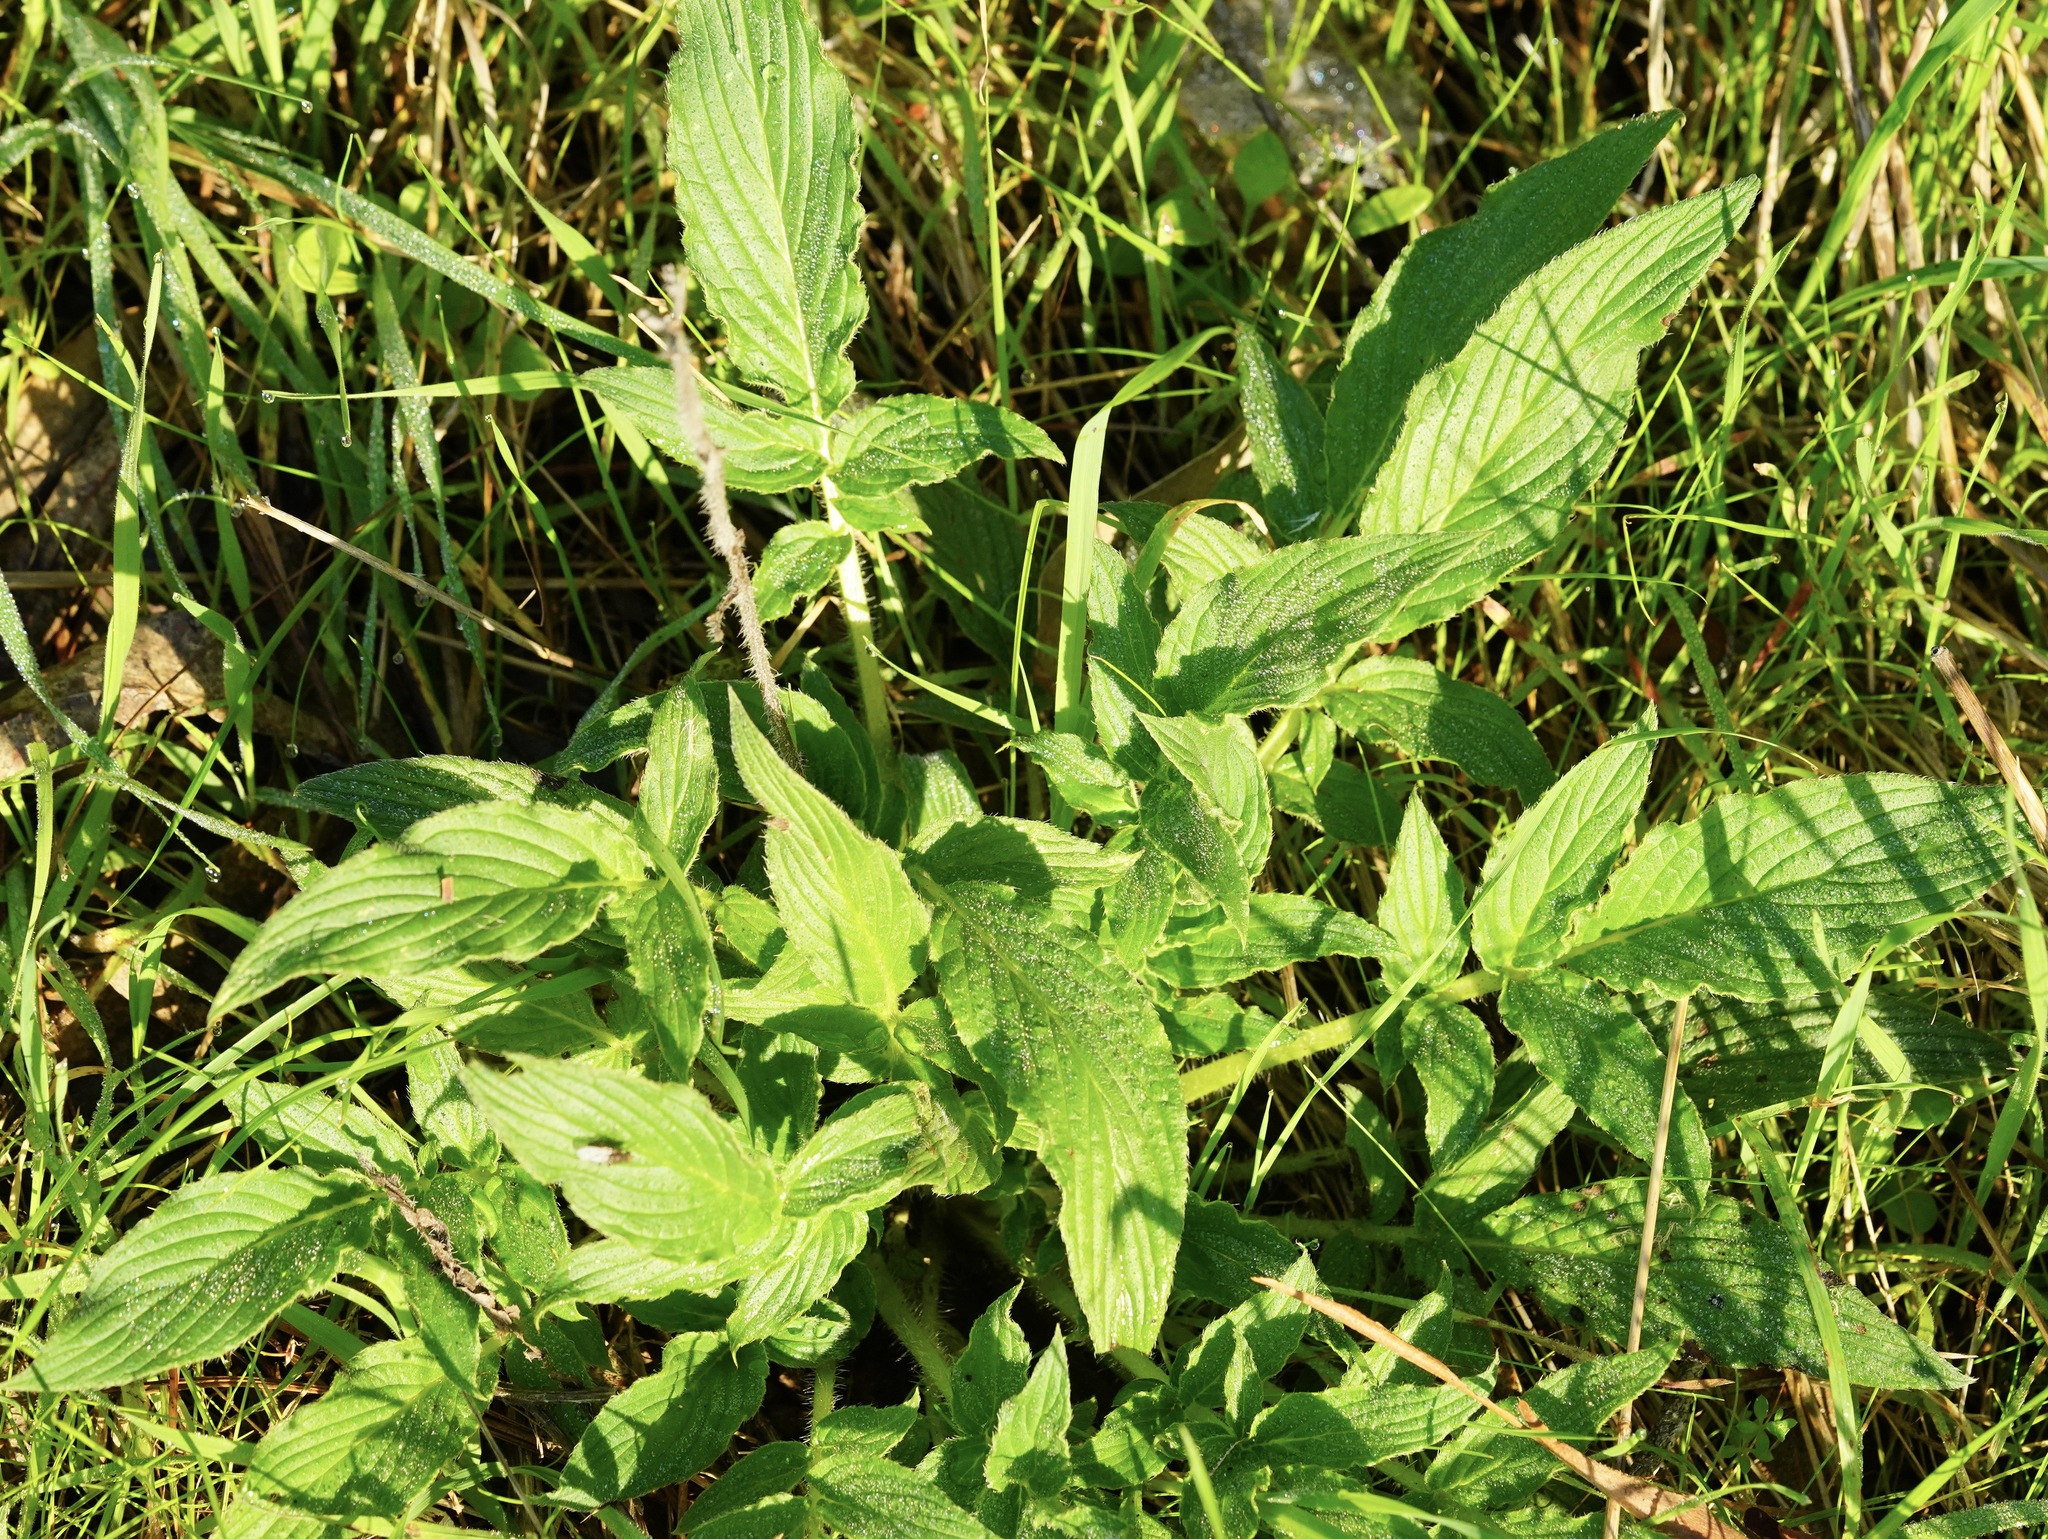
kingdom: Plantae
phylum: Tracheophyta
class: Magnoliopsida
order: Boraginales
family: Hydrophyllaceae
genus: Phacelia
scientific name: Phacelia californica
